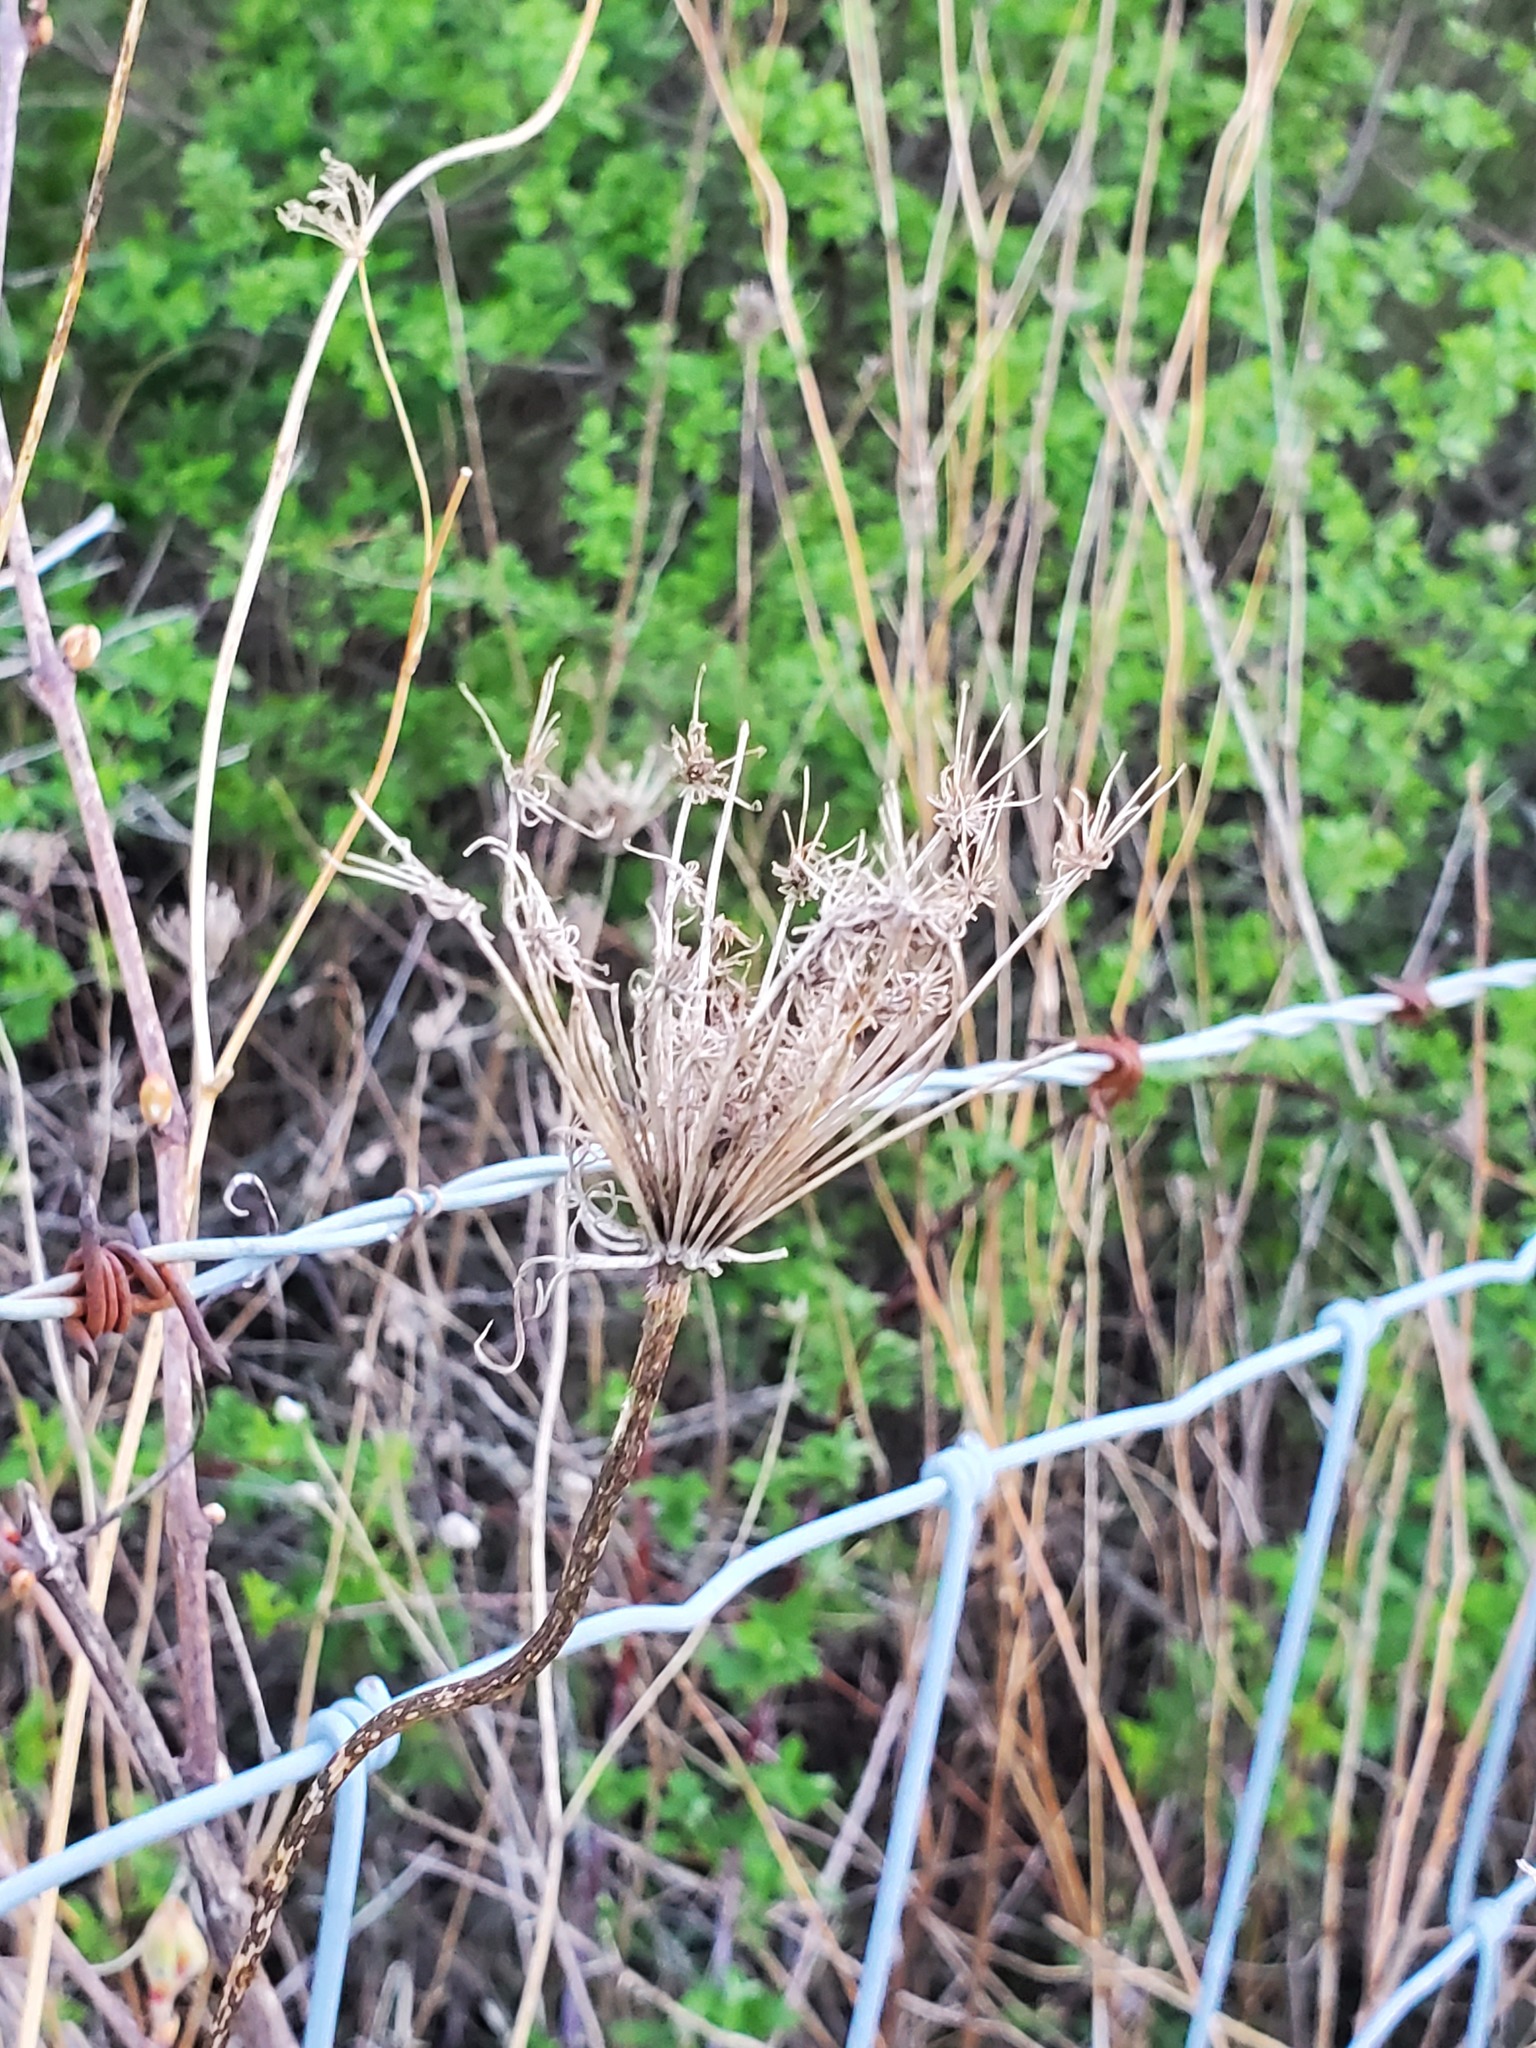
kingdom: Plantae
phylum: Tracheophyta
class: Magnoliopsida
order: Apiales
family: Apiaceae
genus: Daucus
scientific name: Daucus carota
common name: Wild carrot
